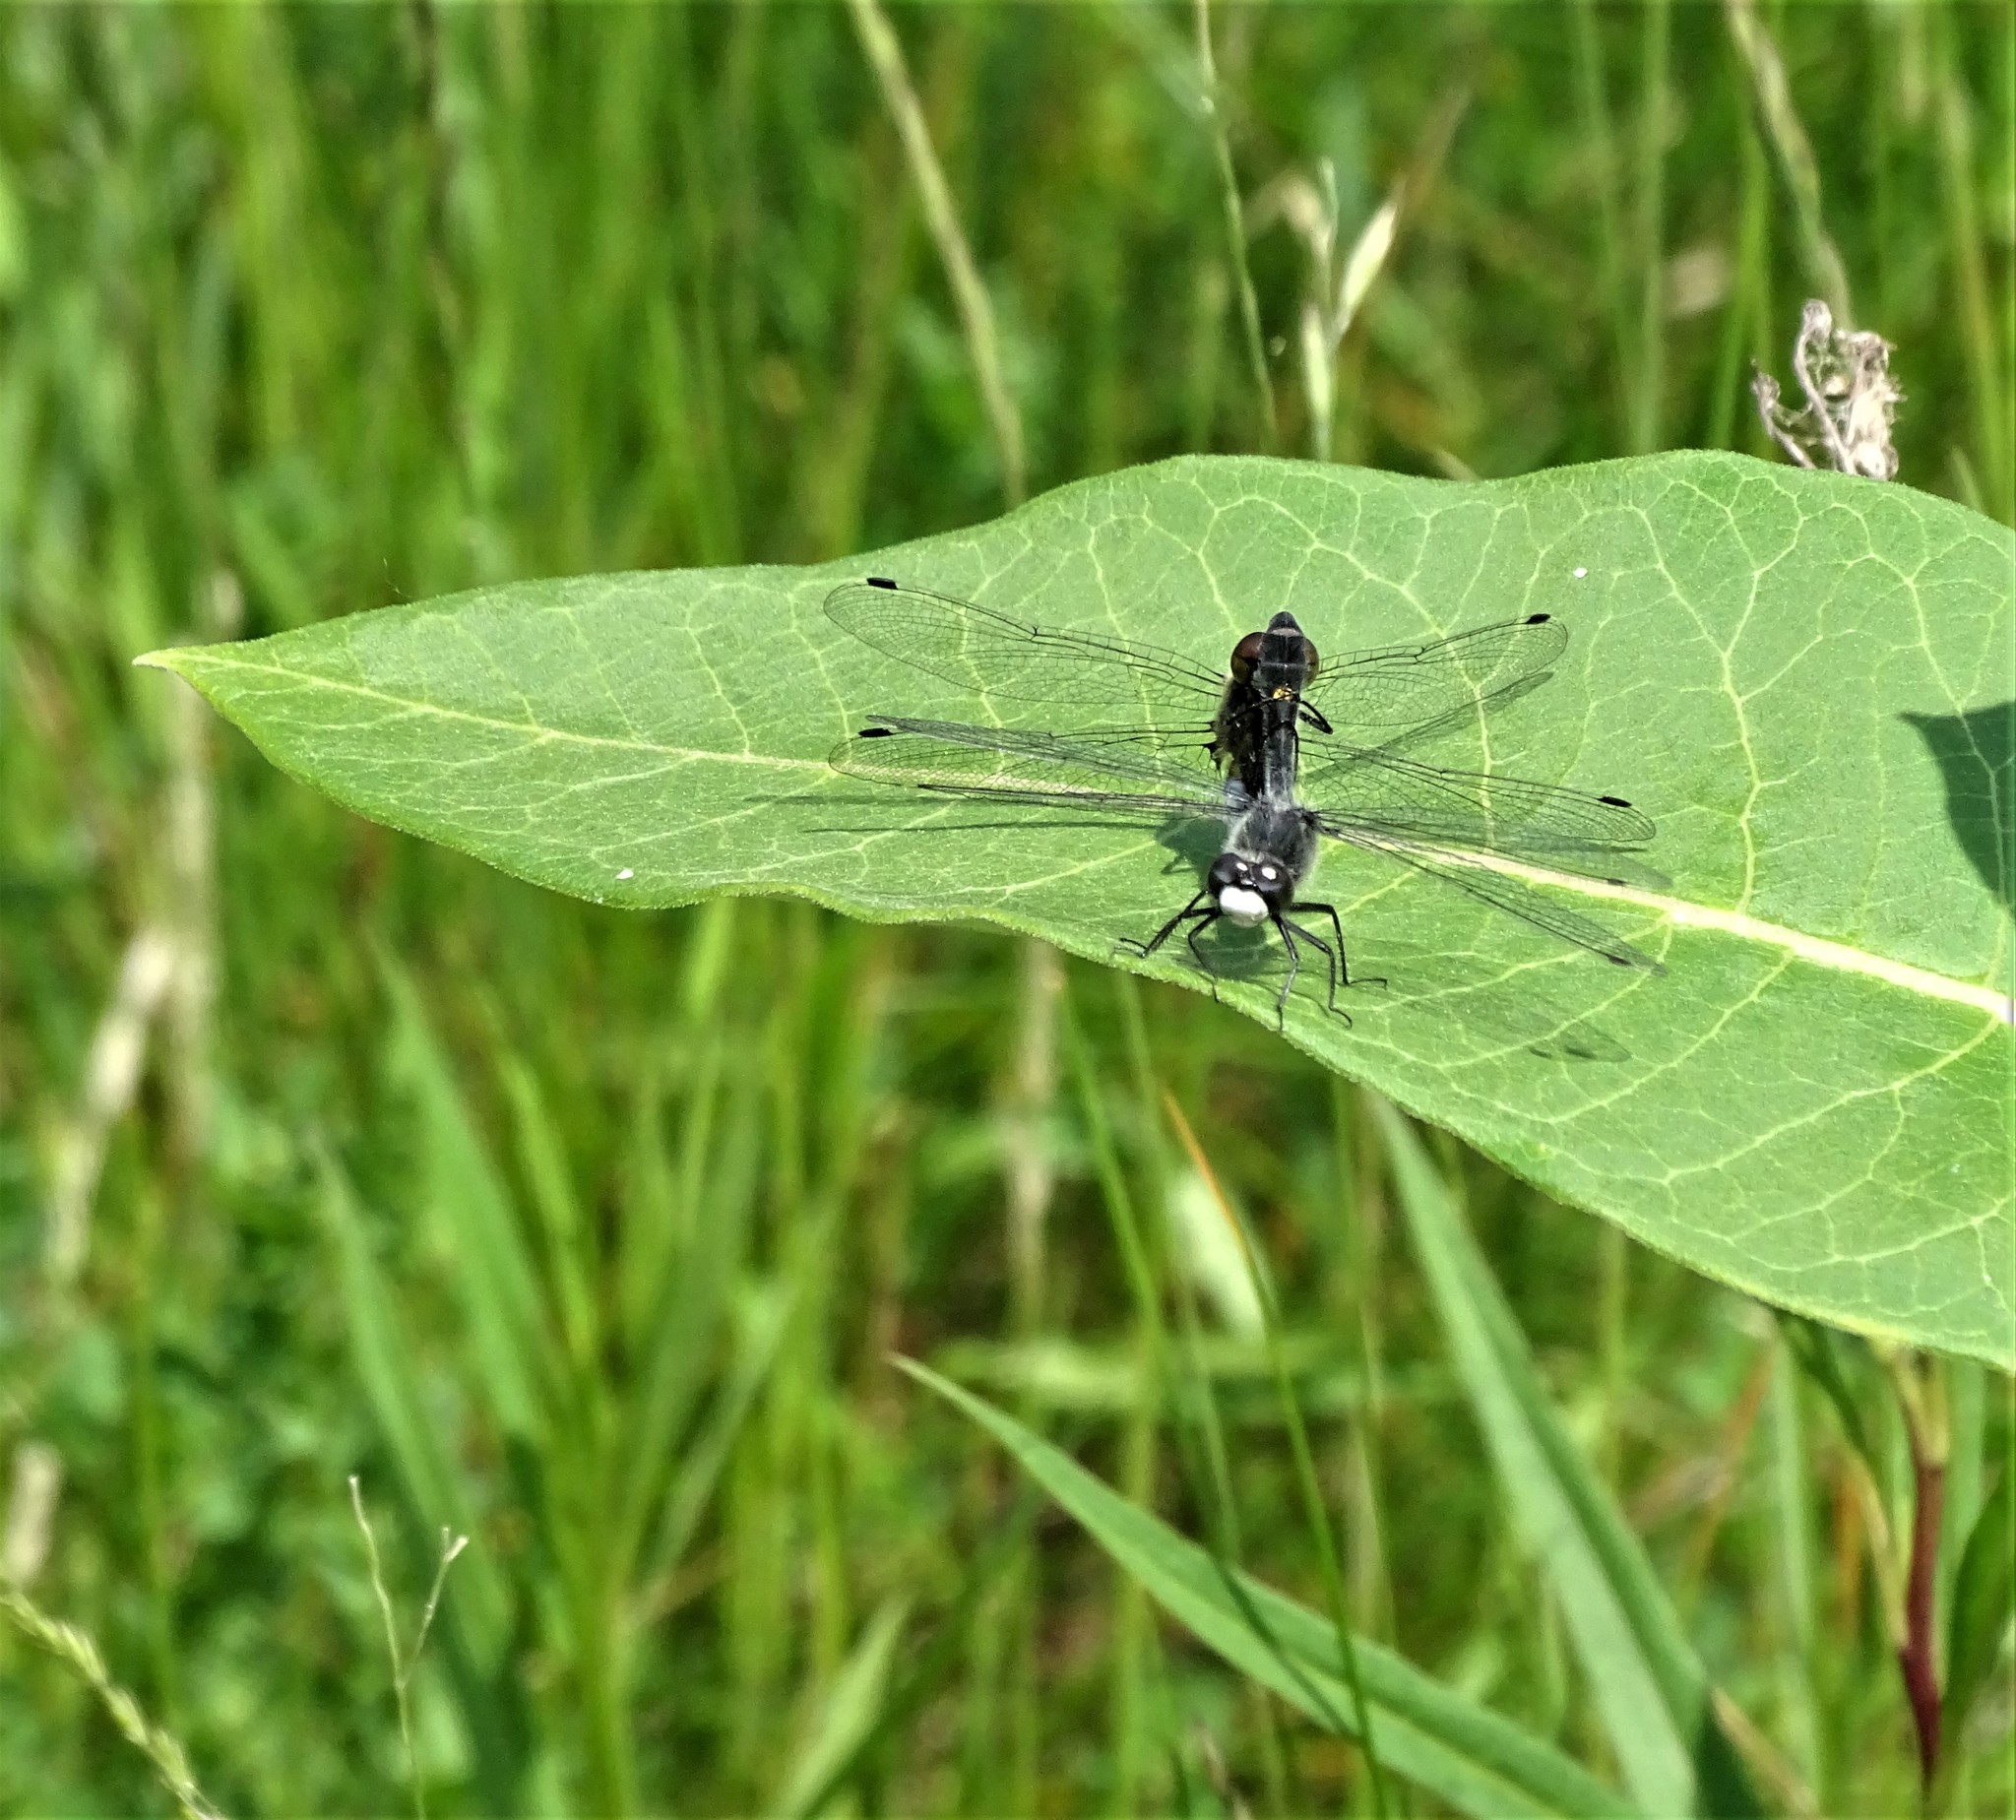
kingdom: Animalia
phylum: Arthropoda
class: Insecta
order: Odonata
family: Libellulidae
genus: Leucorrhinia
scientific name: Leucorrhinia intacta
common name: Dot-tailed whiteface
